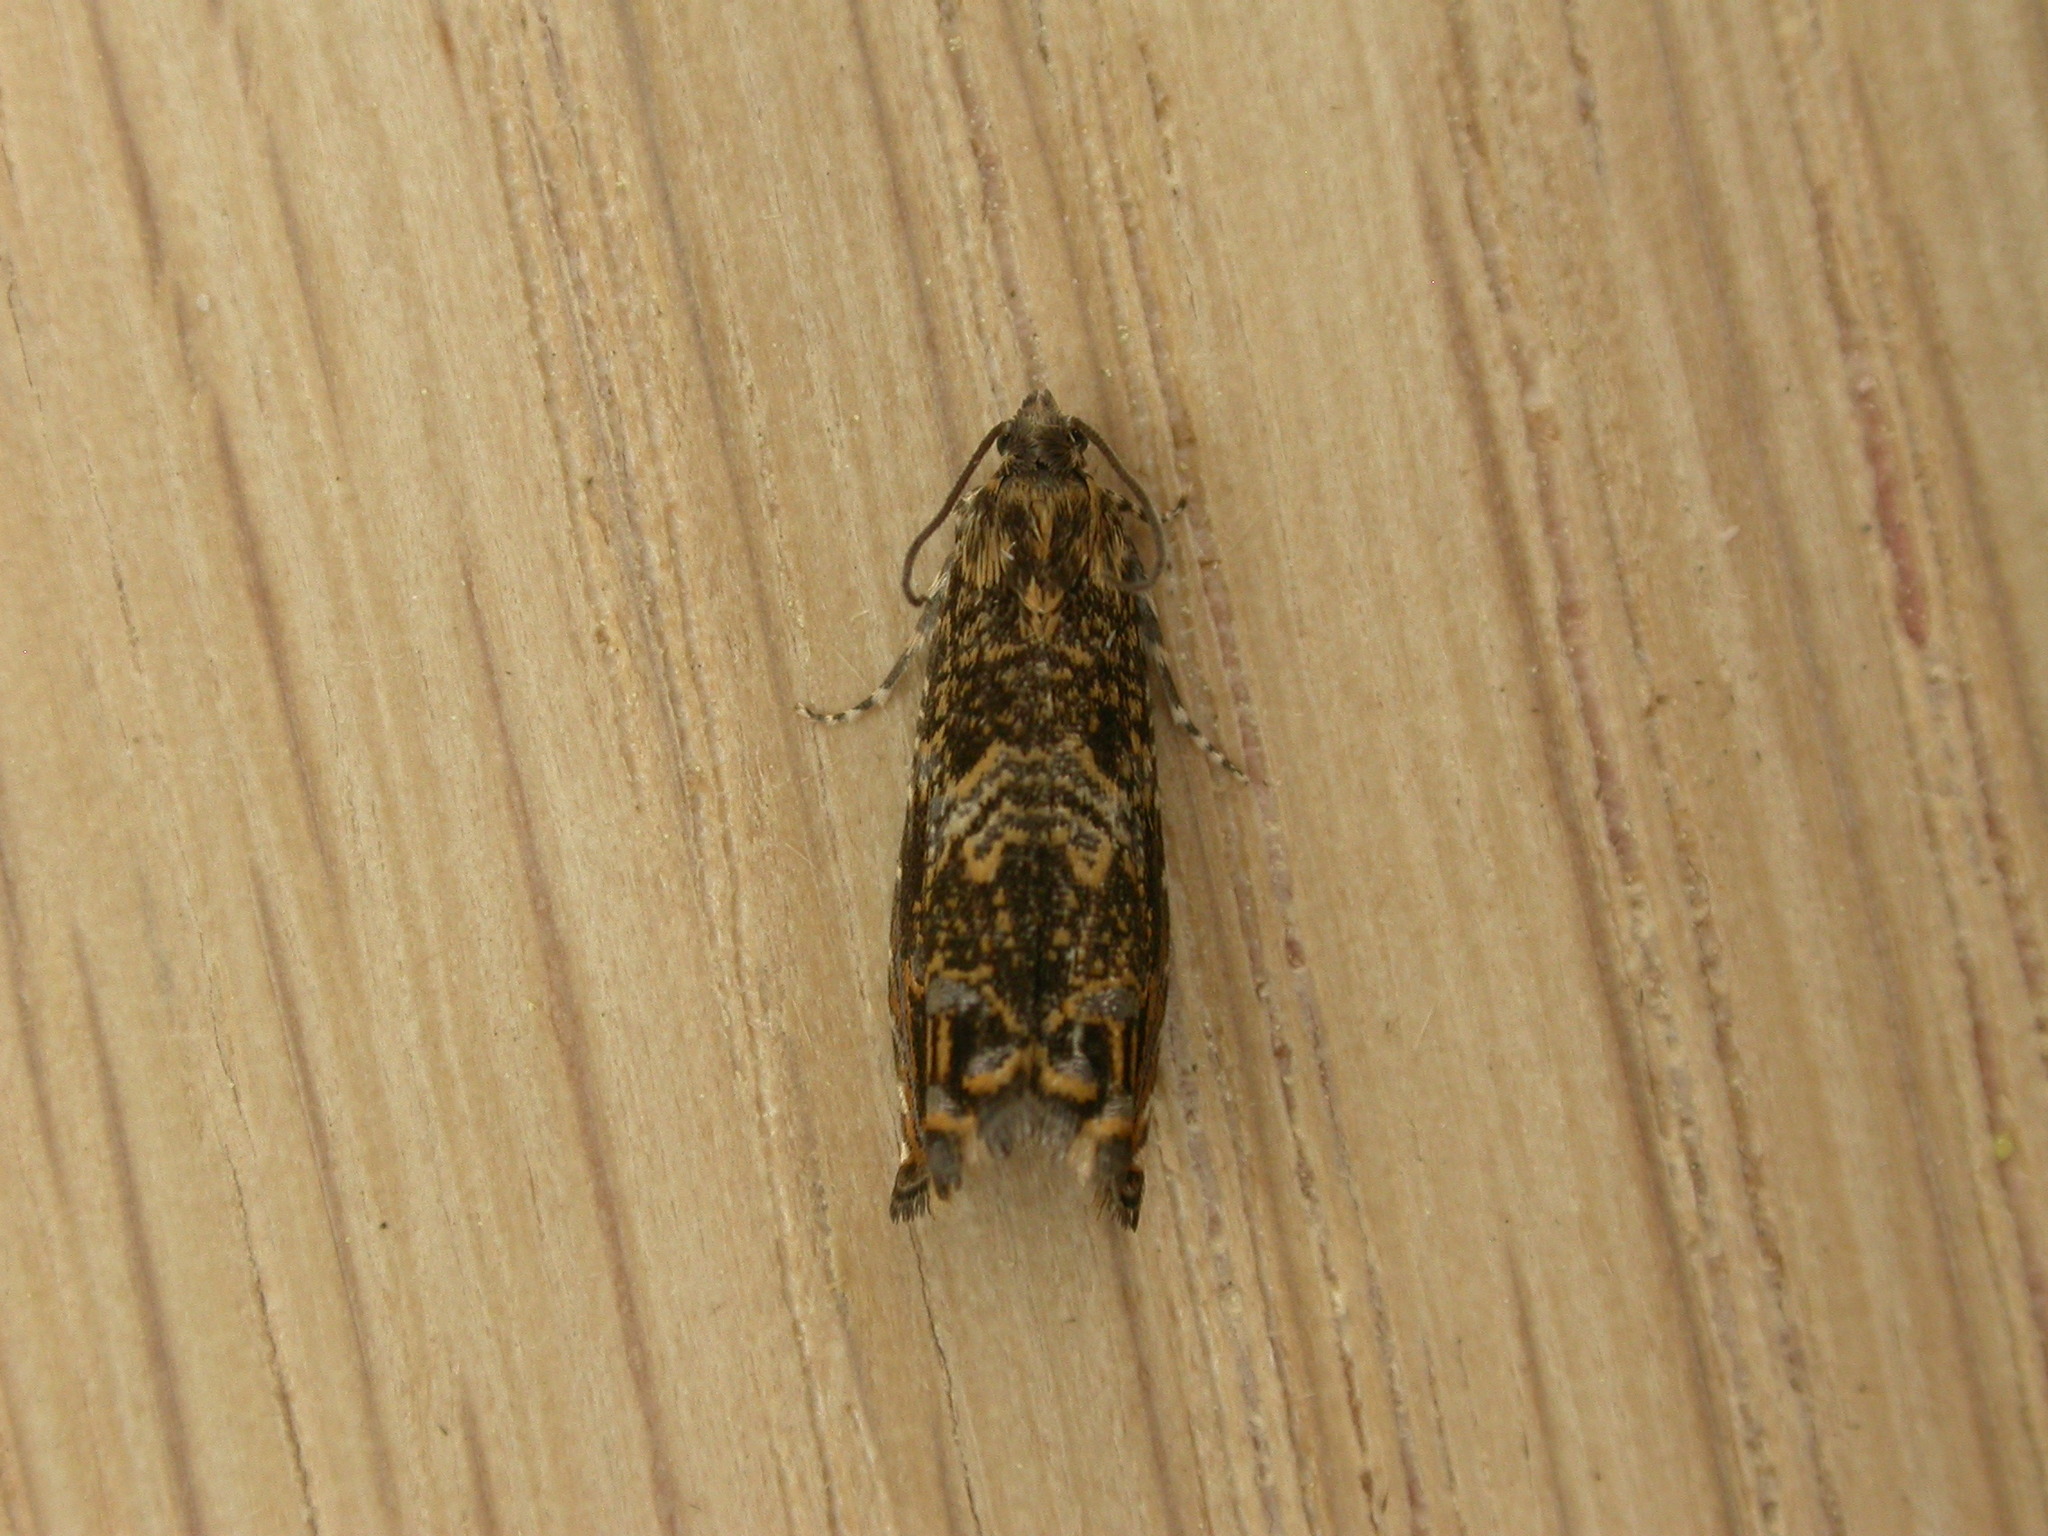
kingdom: Animalia
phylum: Arthropoda
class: Insecta
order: Lepidoptera
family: Tortricidae
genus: Enarmonia
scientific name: Enarmonia formosana
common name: Cherry bark tortrix
